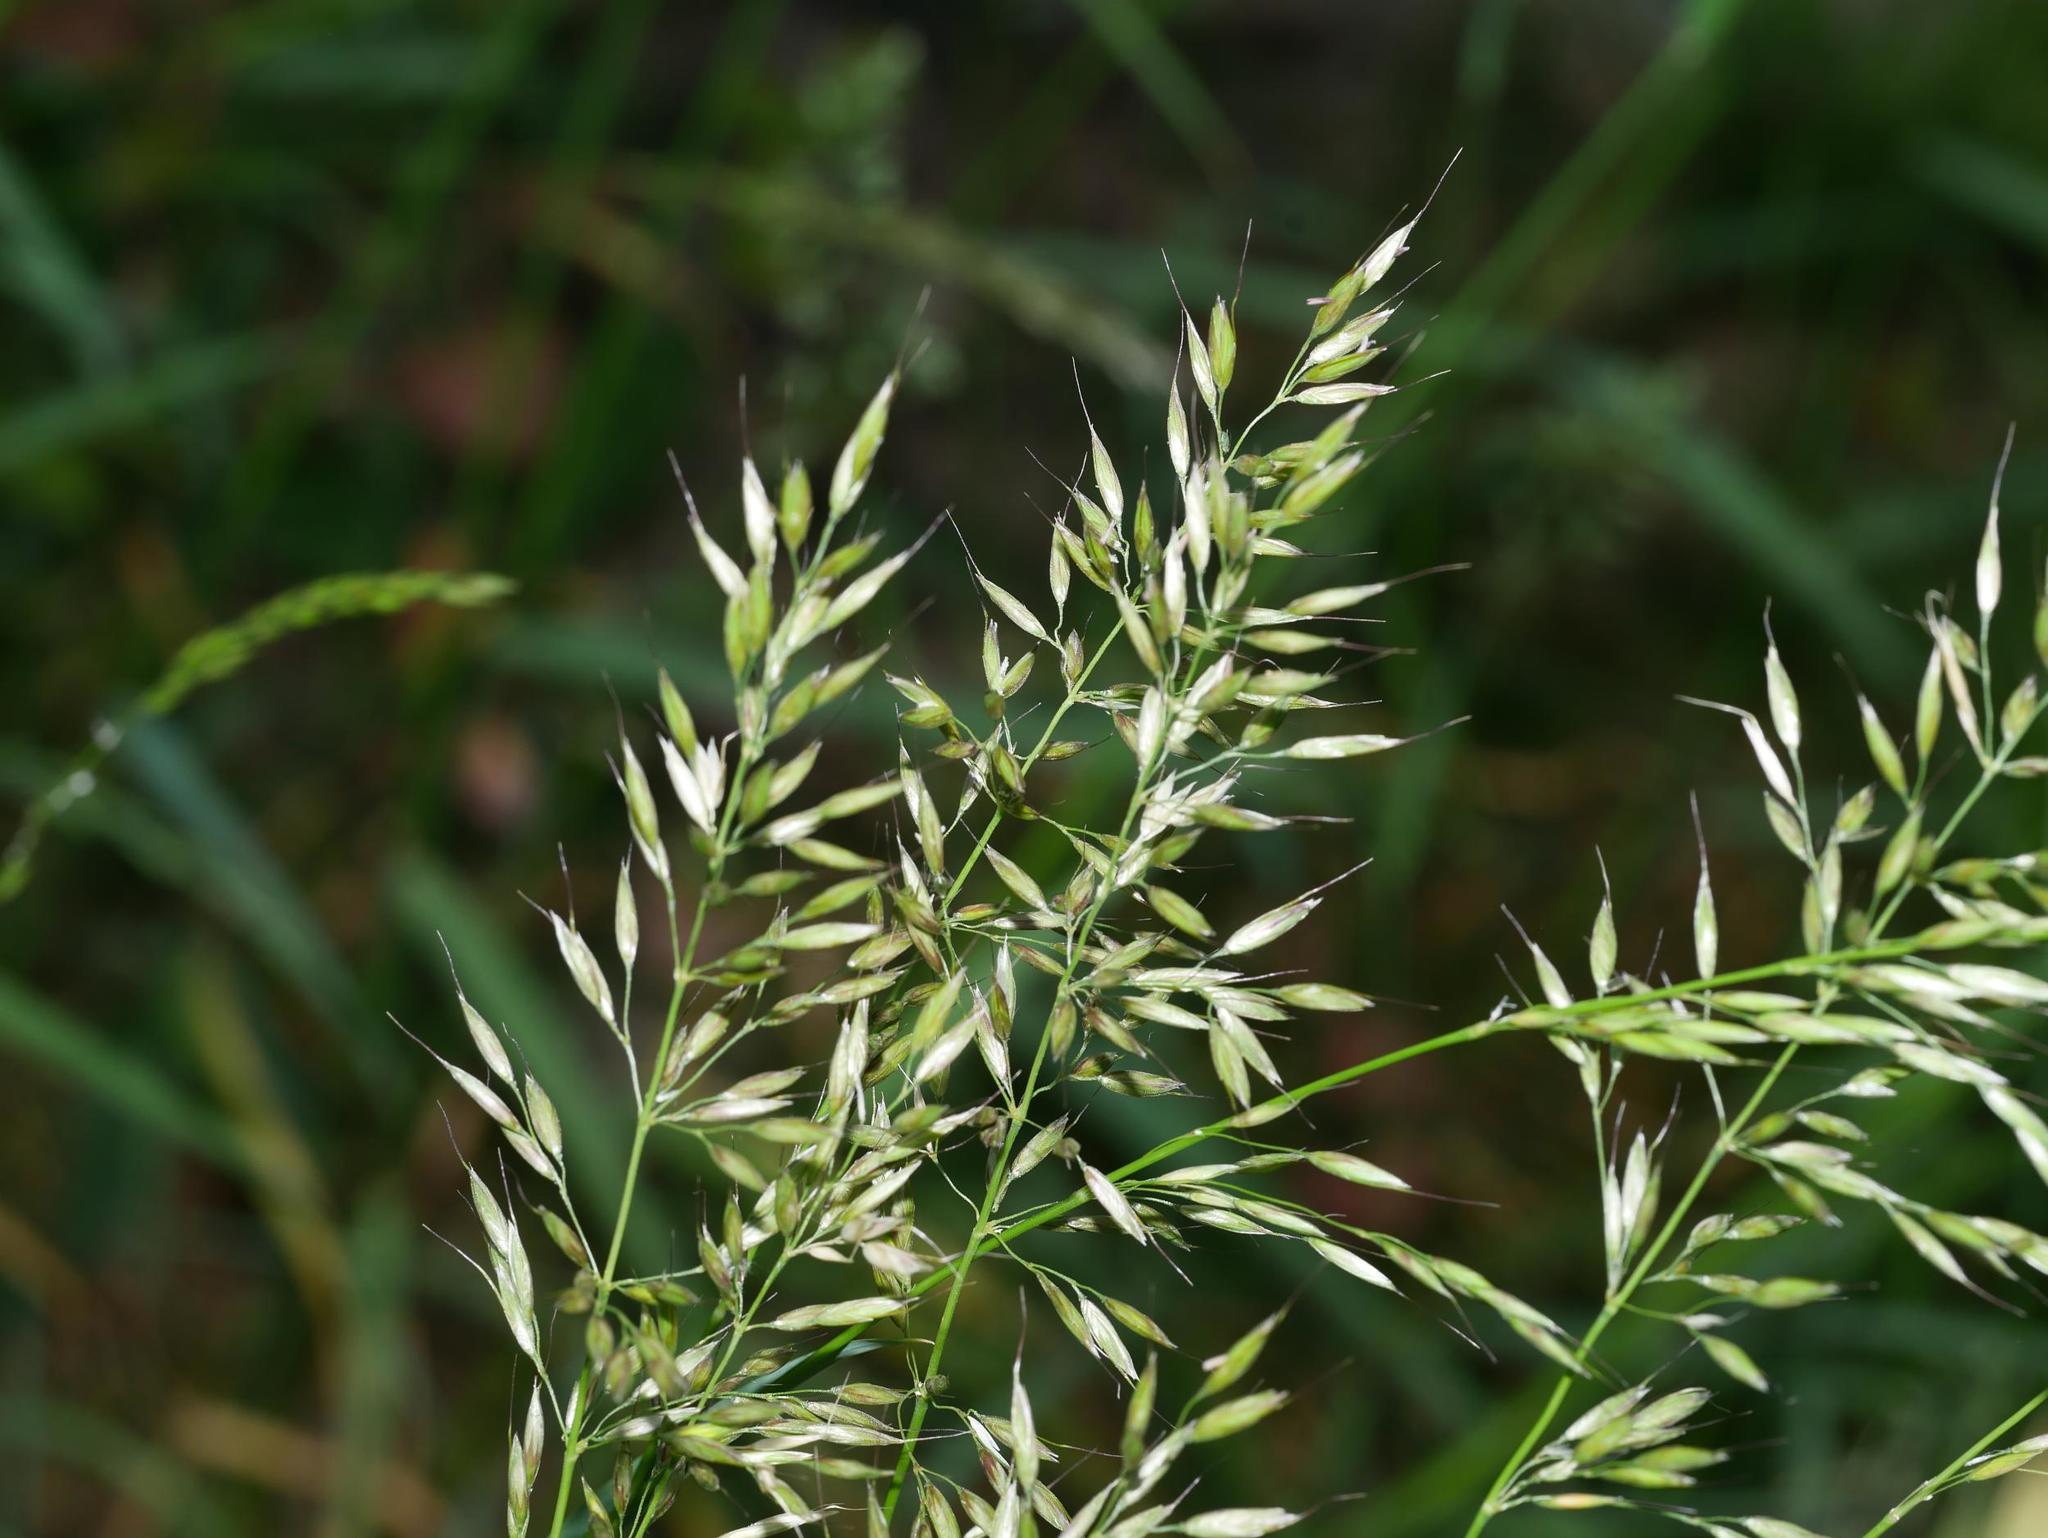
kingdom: Plantae
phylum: Tracheophyta
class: Liliopsida
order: Poales
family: Poaceae
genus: Arrhenatherum
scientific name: Arrhenatherum elatius
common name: Tall oatgrass
